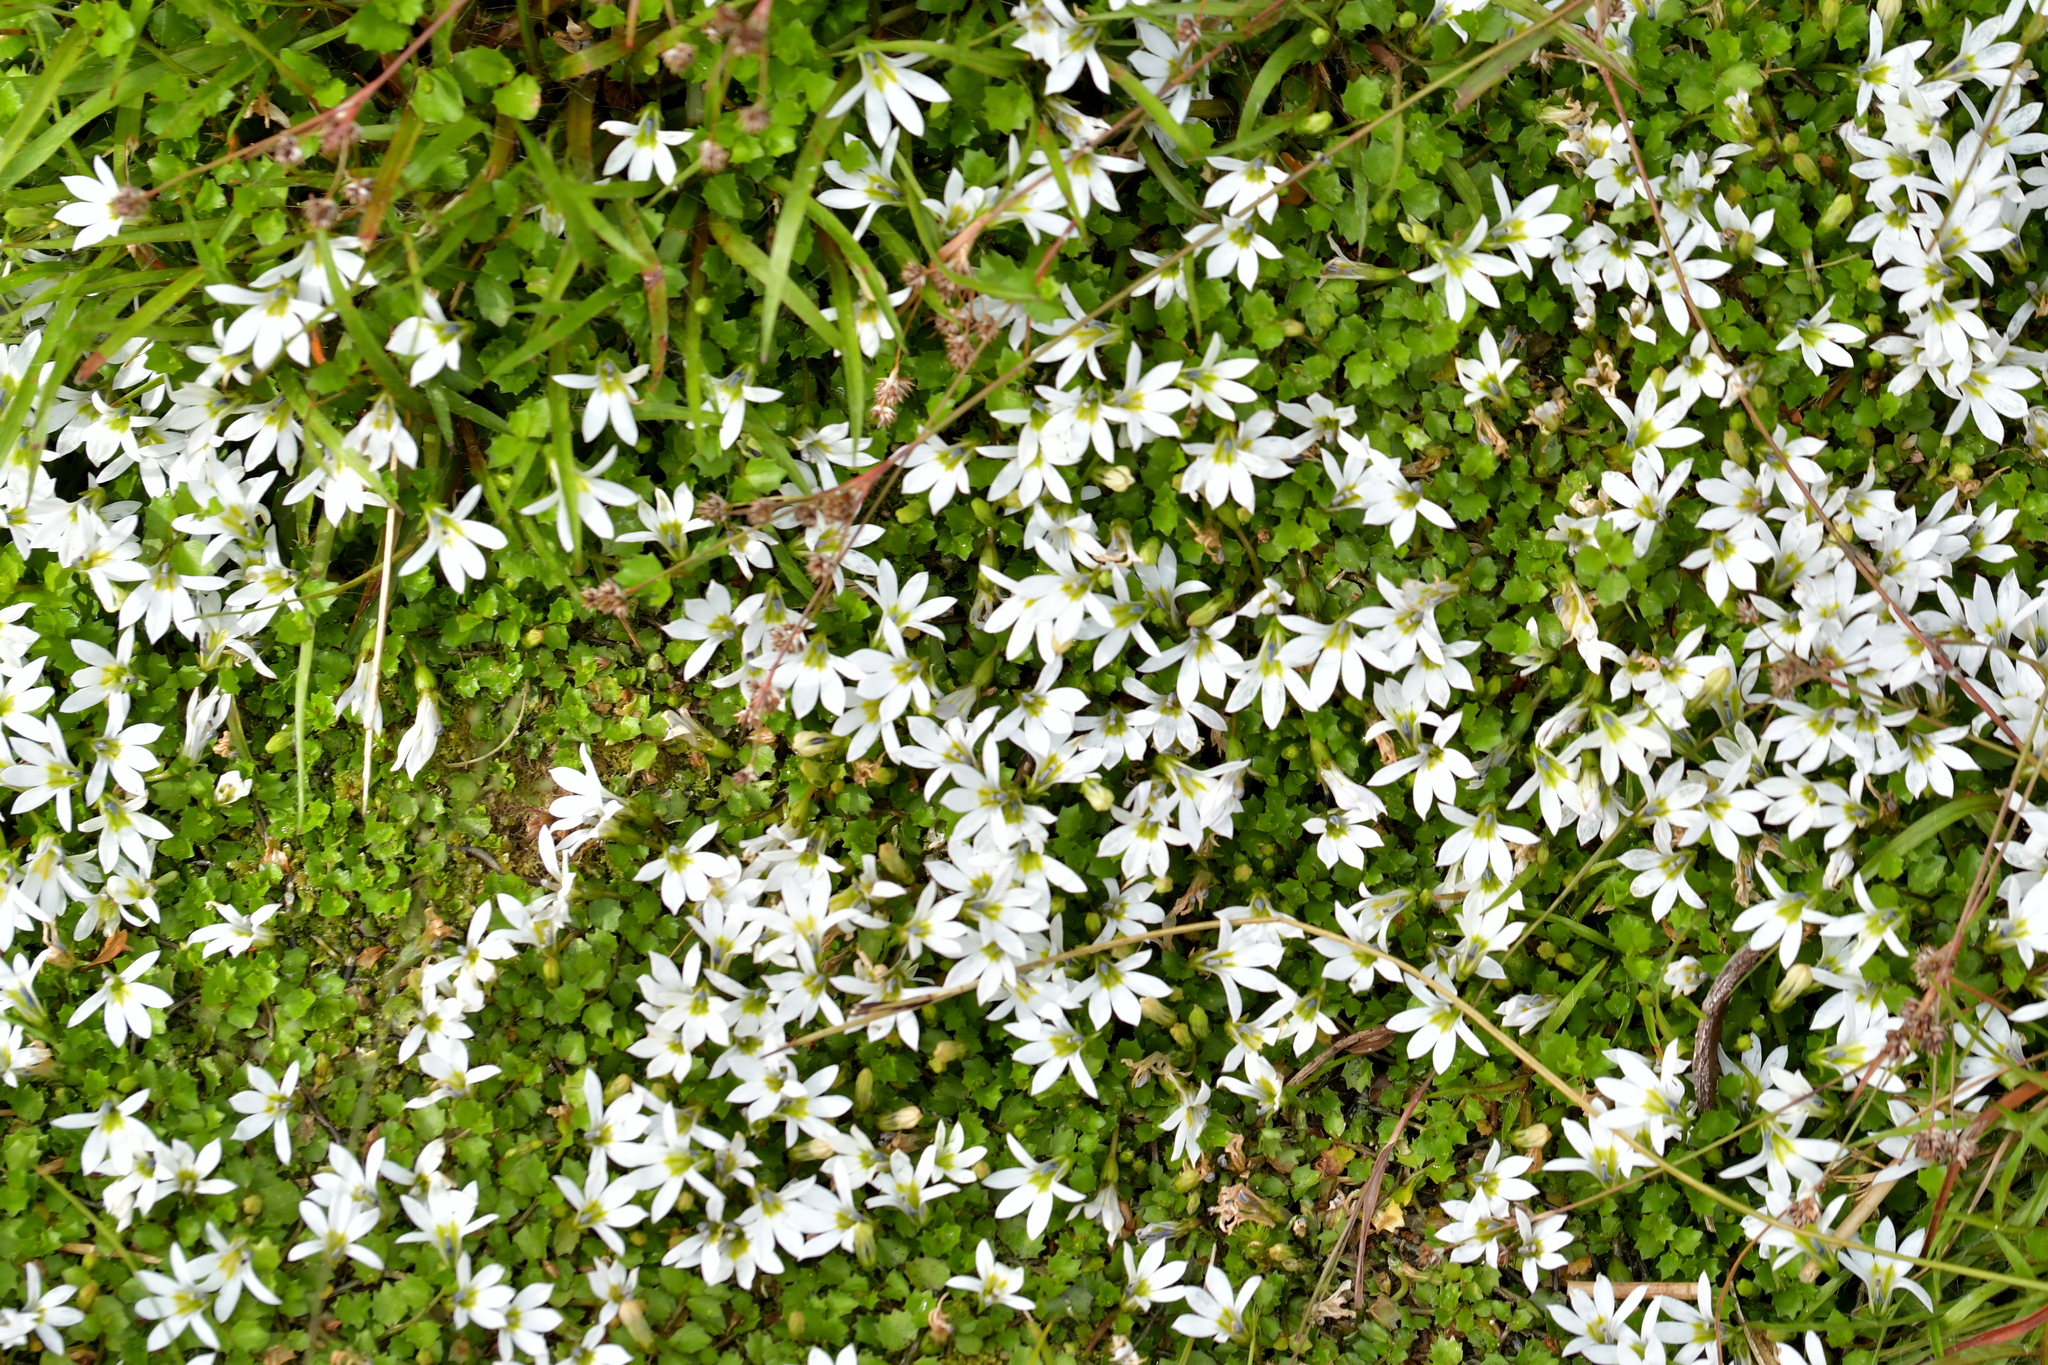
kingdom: Plantae
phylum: Tracheophyta
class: Magnoliopsida
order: Asterales
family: Campanulaceae
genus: Lobelia
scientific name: Lobelia angulata
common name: Lawn lobelia
